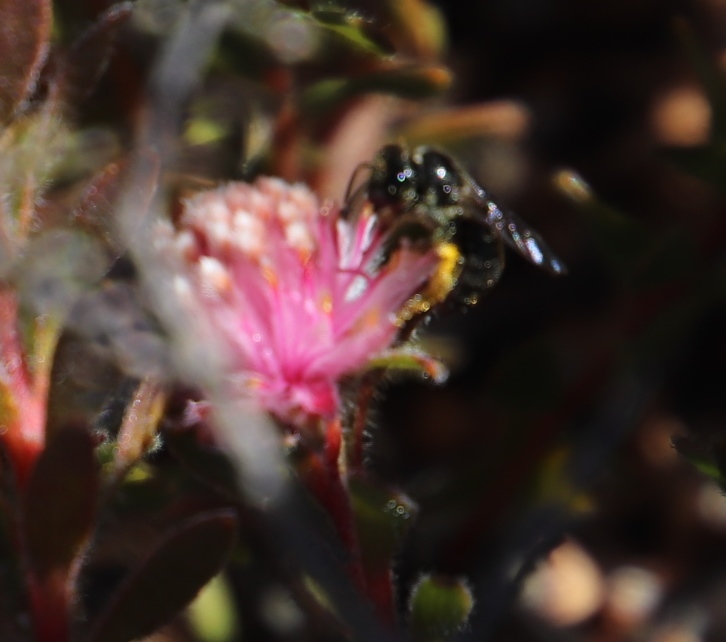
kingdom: Plantae
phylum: Tracheophyta
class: Magnoliopsida
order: Proteales
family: Proteaceae
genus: Diastella
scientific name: Diastella divaricata
